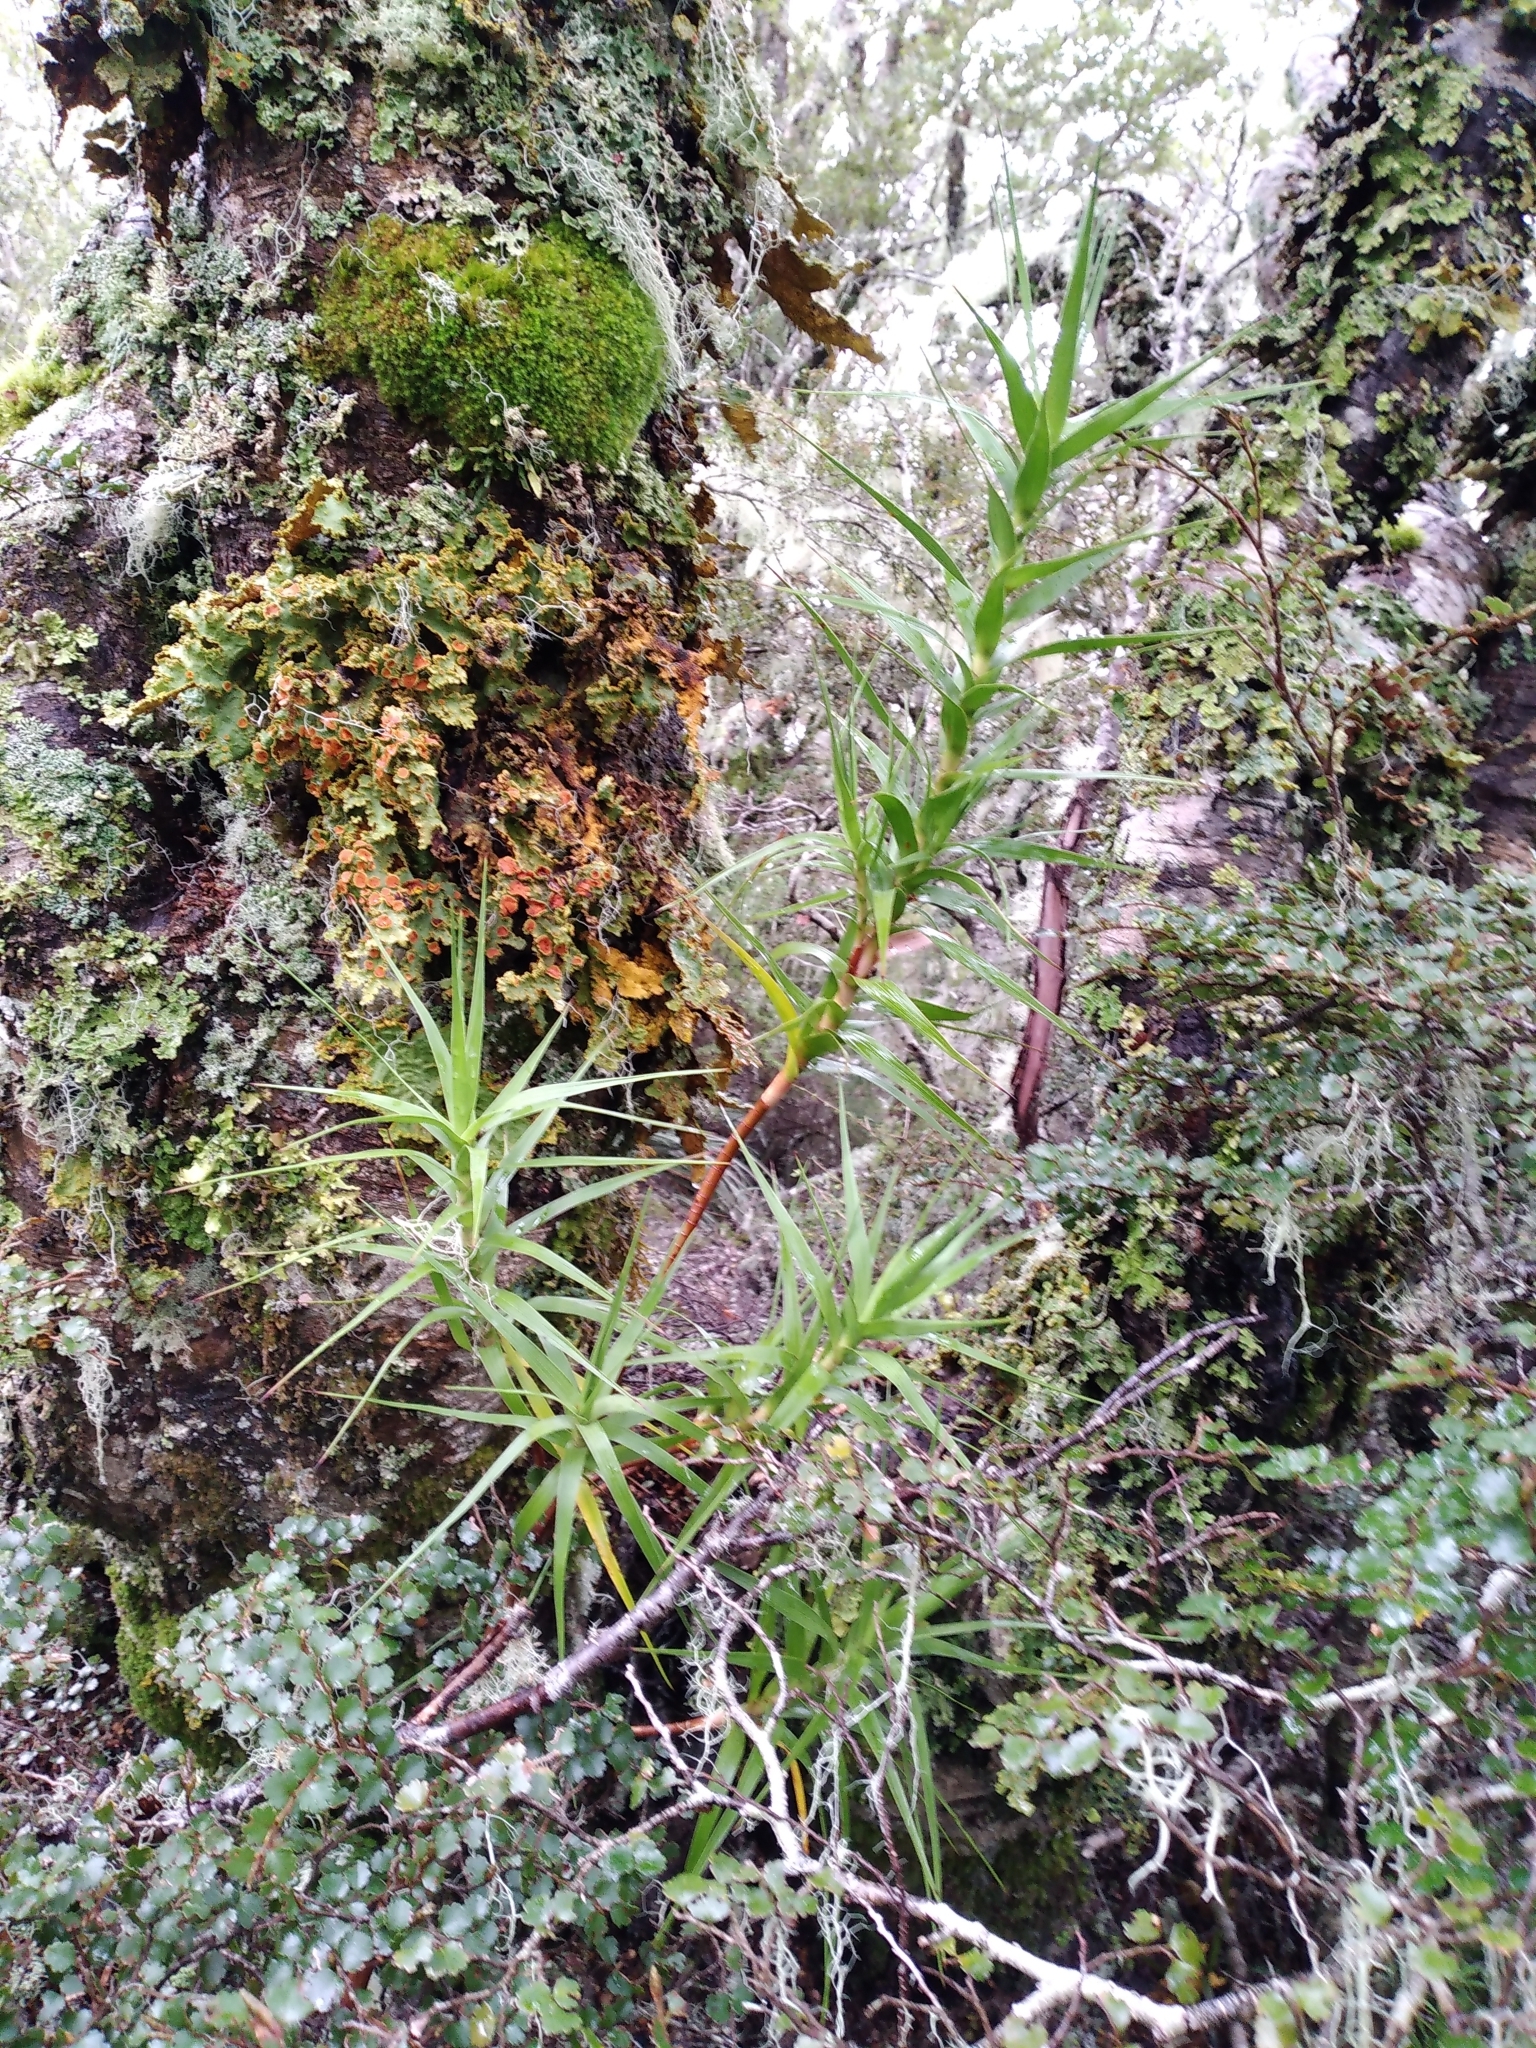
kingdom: Plantae
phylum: Tracheophyta
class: Magnoliopsida
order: Ericales
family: Ericaceae
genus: Dracophyllum
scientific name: Dracophyllum longifolium
